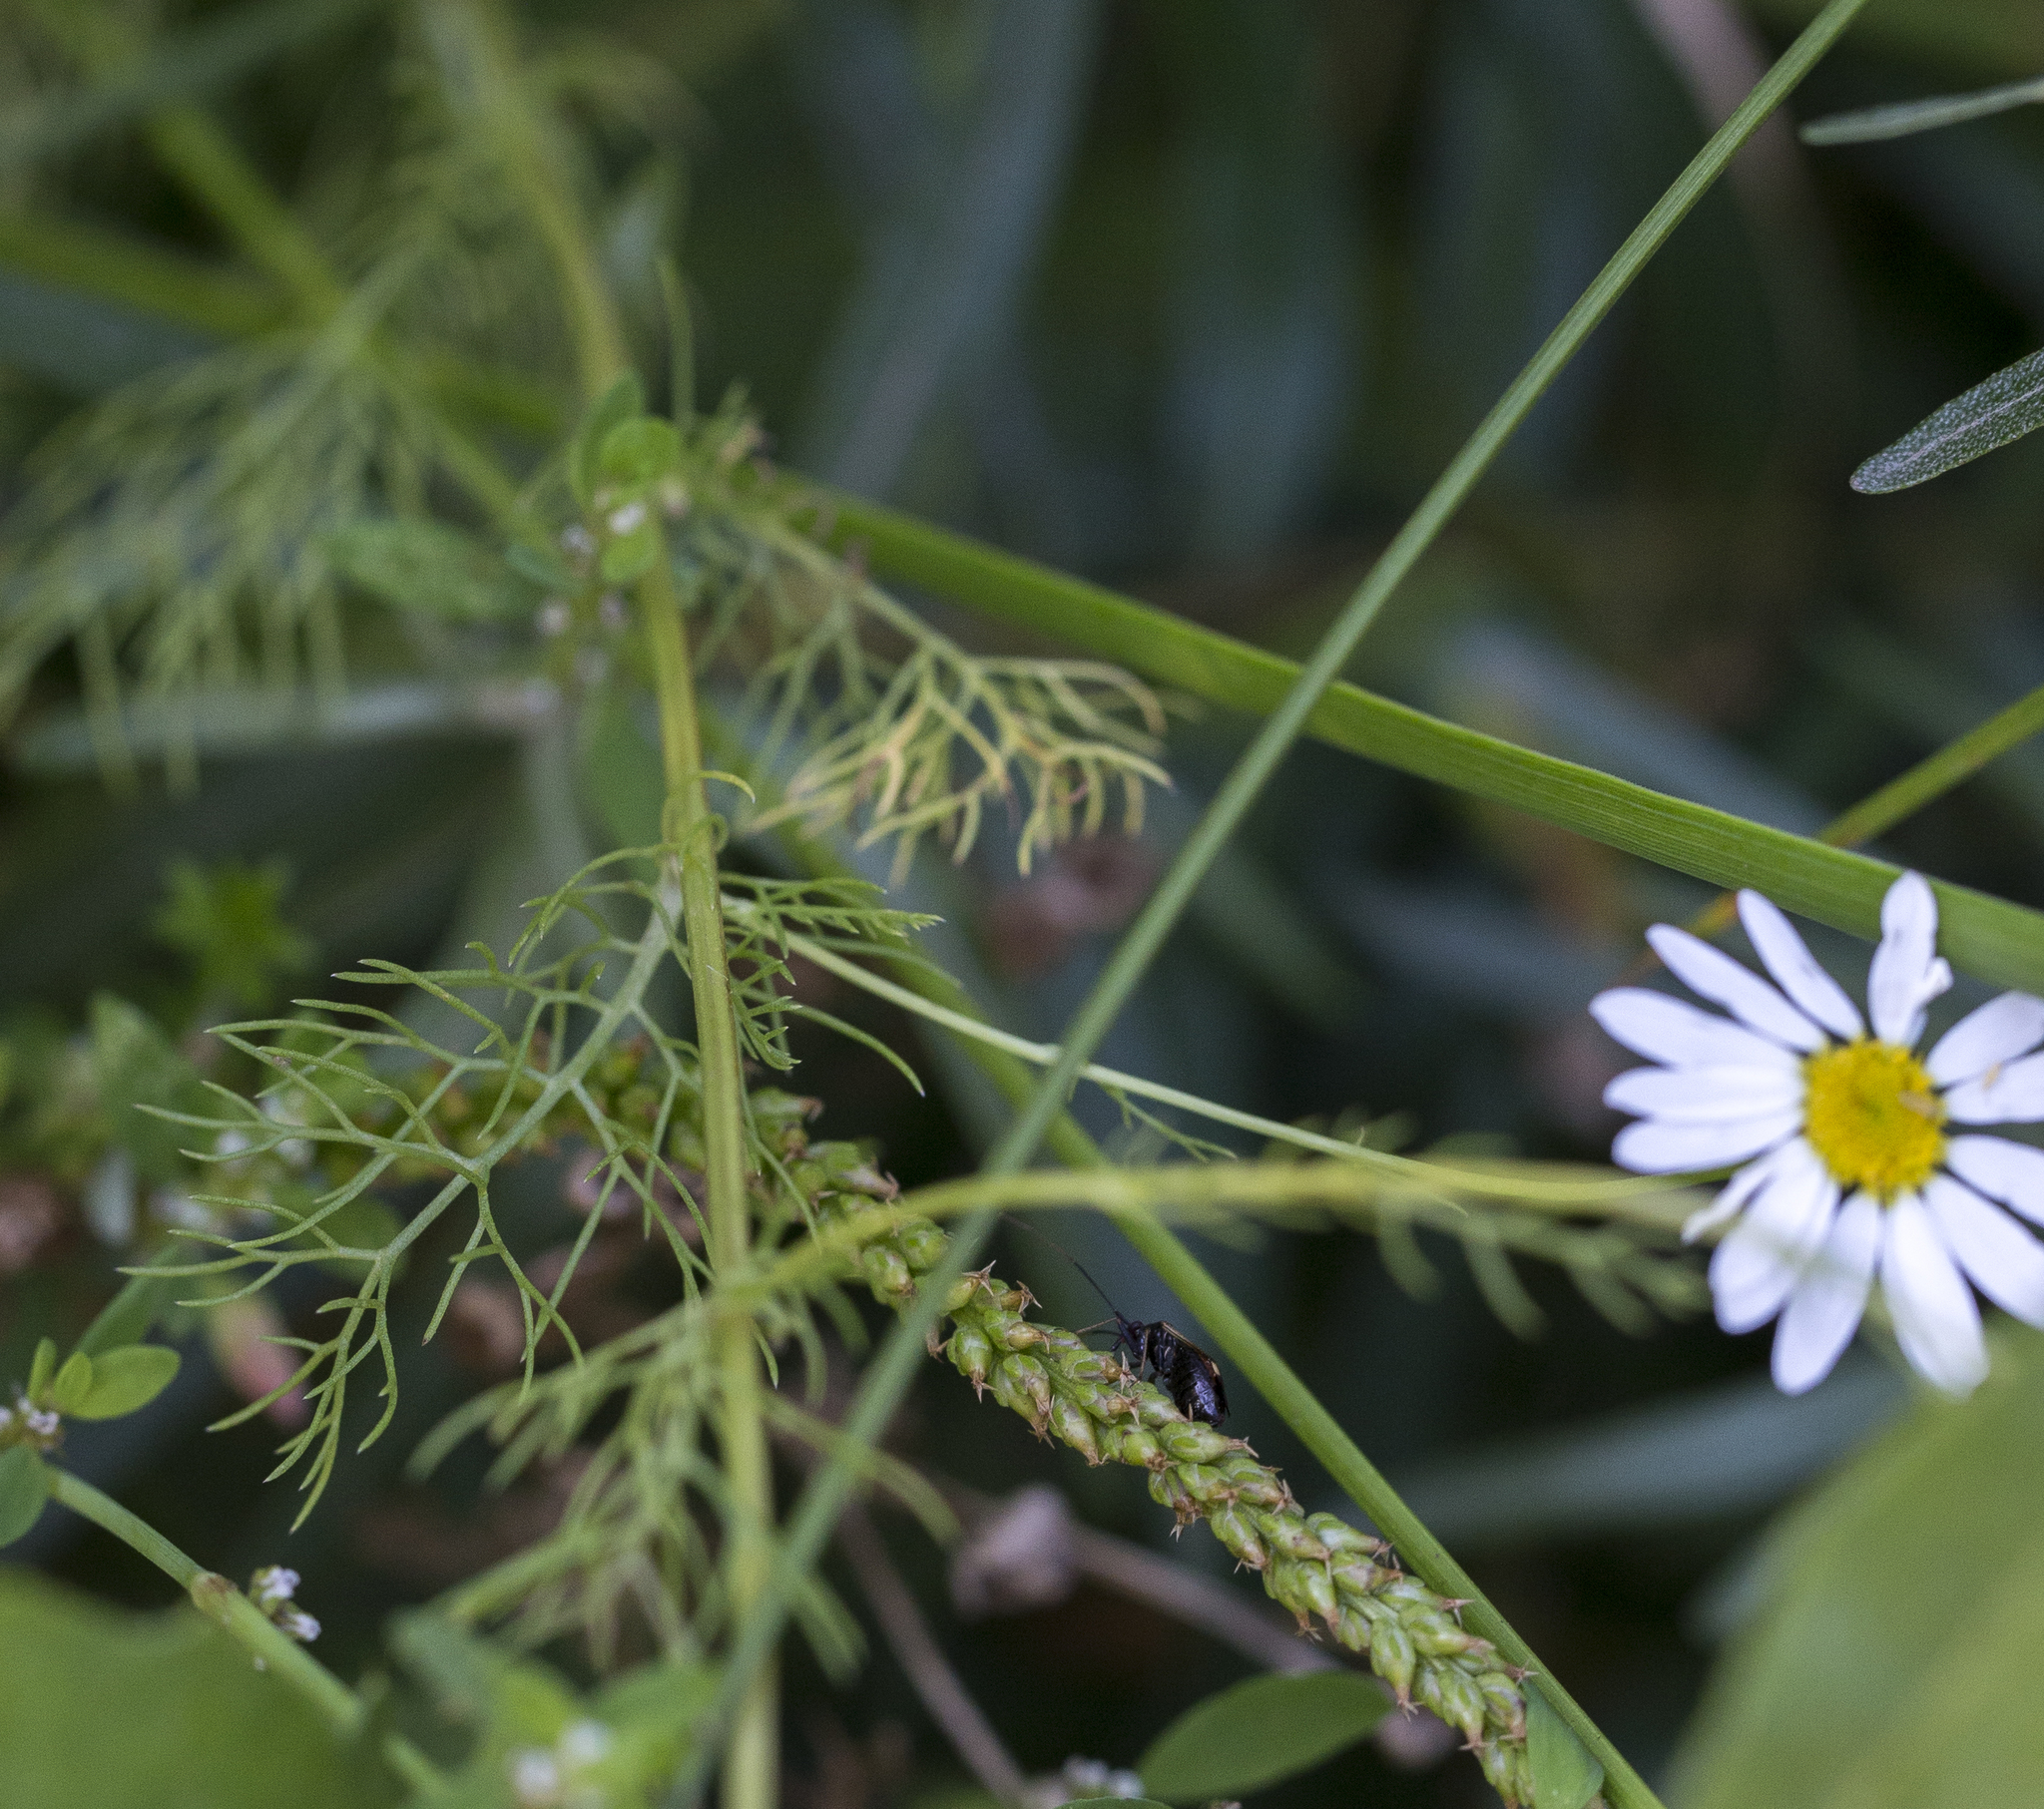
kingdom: Plantae
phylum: Tracheophyta
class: Magnoliopsida
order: Asterales
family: Asteraceae
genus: Tripleurospermum
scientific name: Tripleurospermum inodorum
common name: Scentless mayweed
